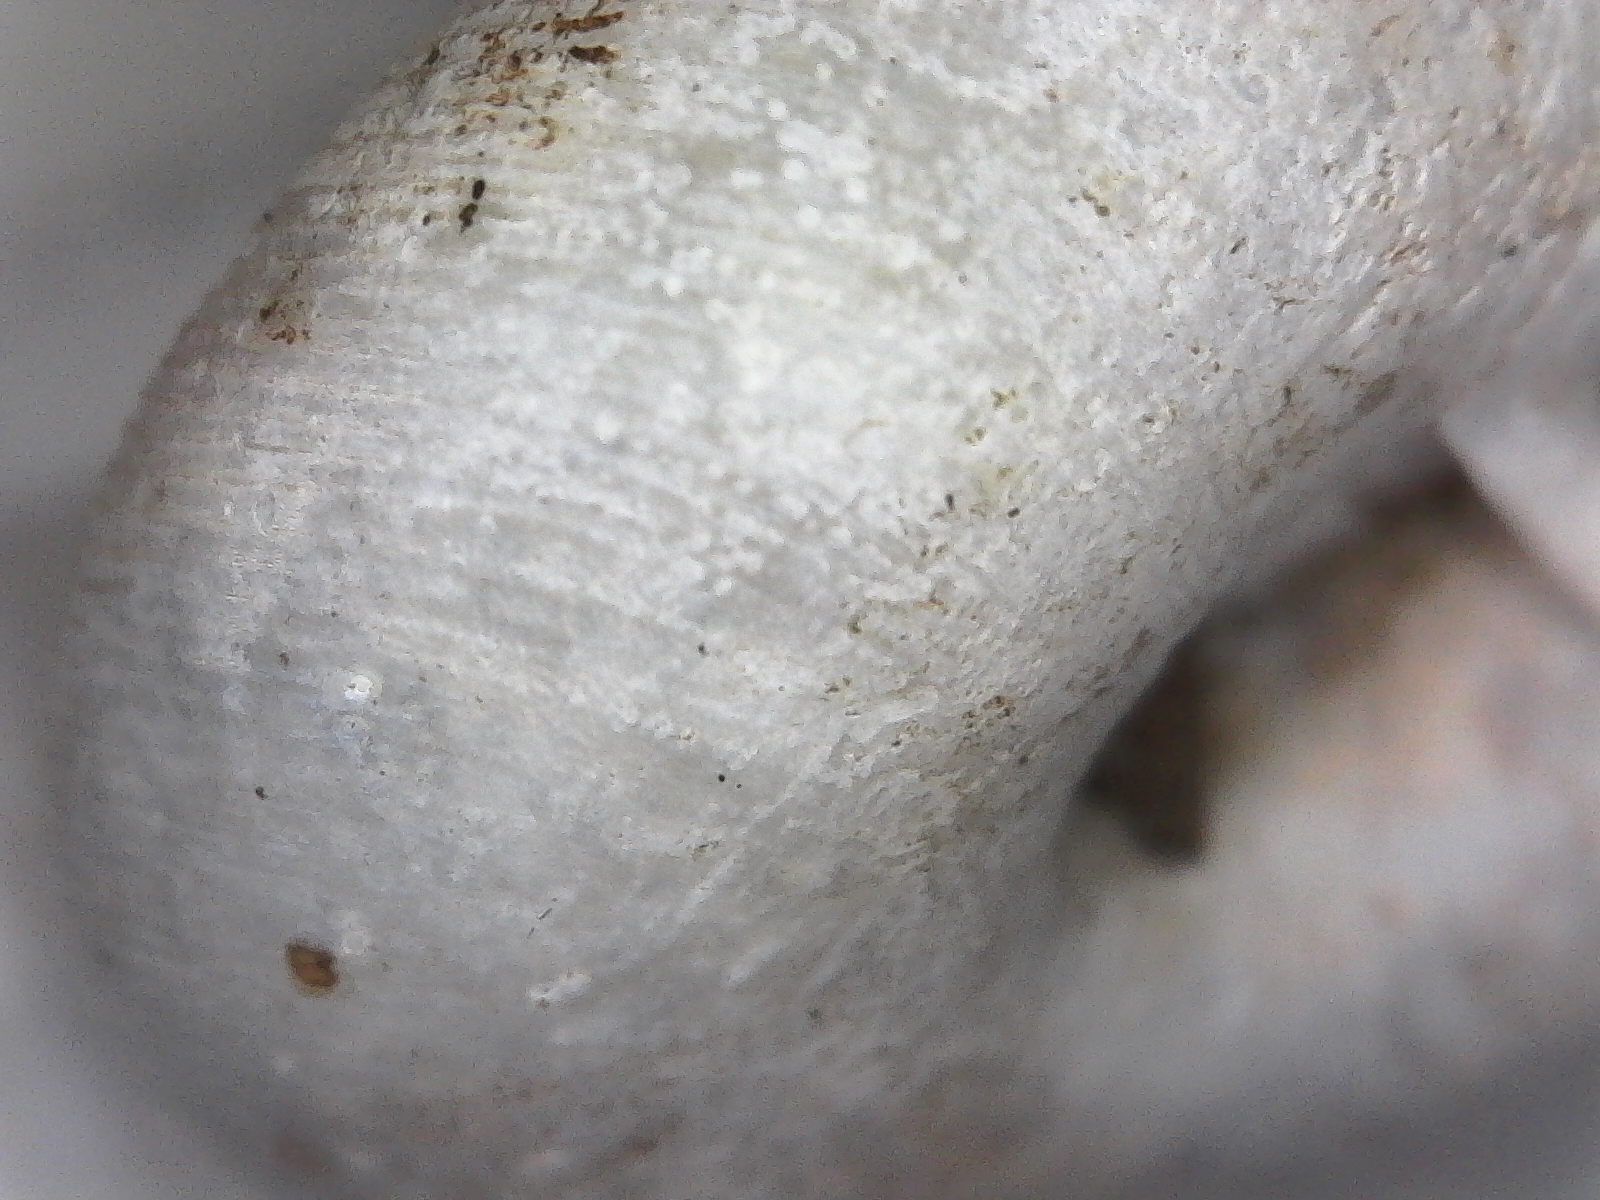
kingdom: Animalia
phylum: Mollusca
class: Gastropoda
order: Stylommatophora
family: Polygyridae
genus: Triodopsis
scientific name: Triodopsis complanata
